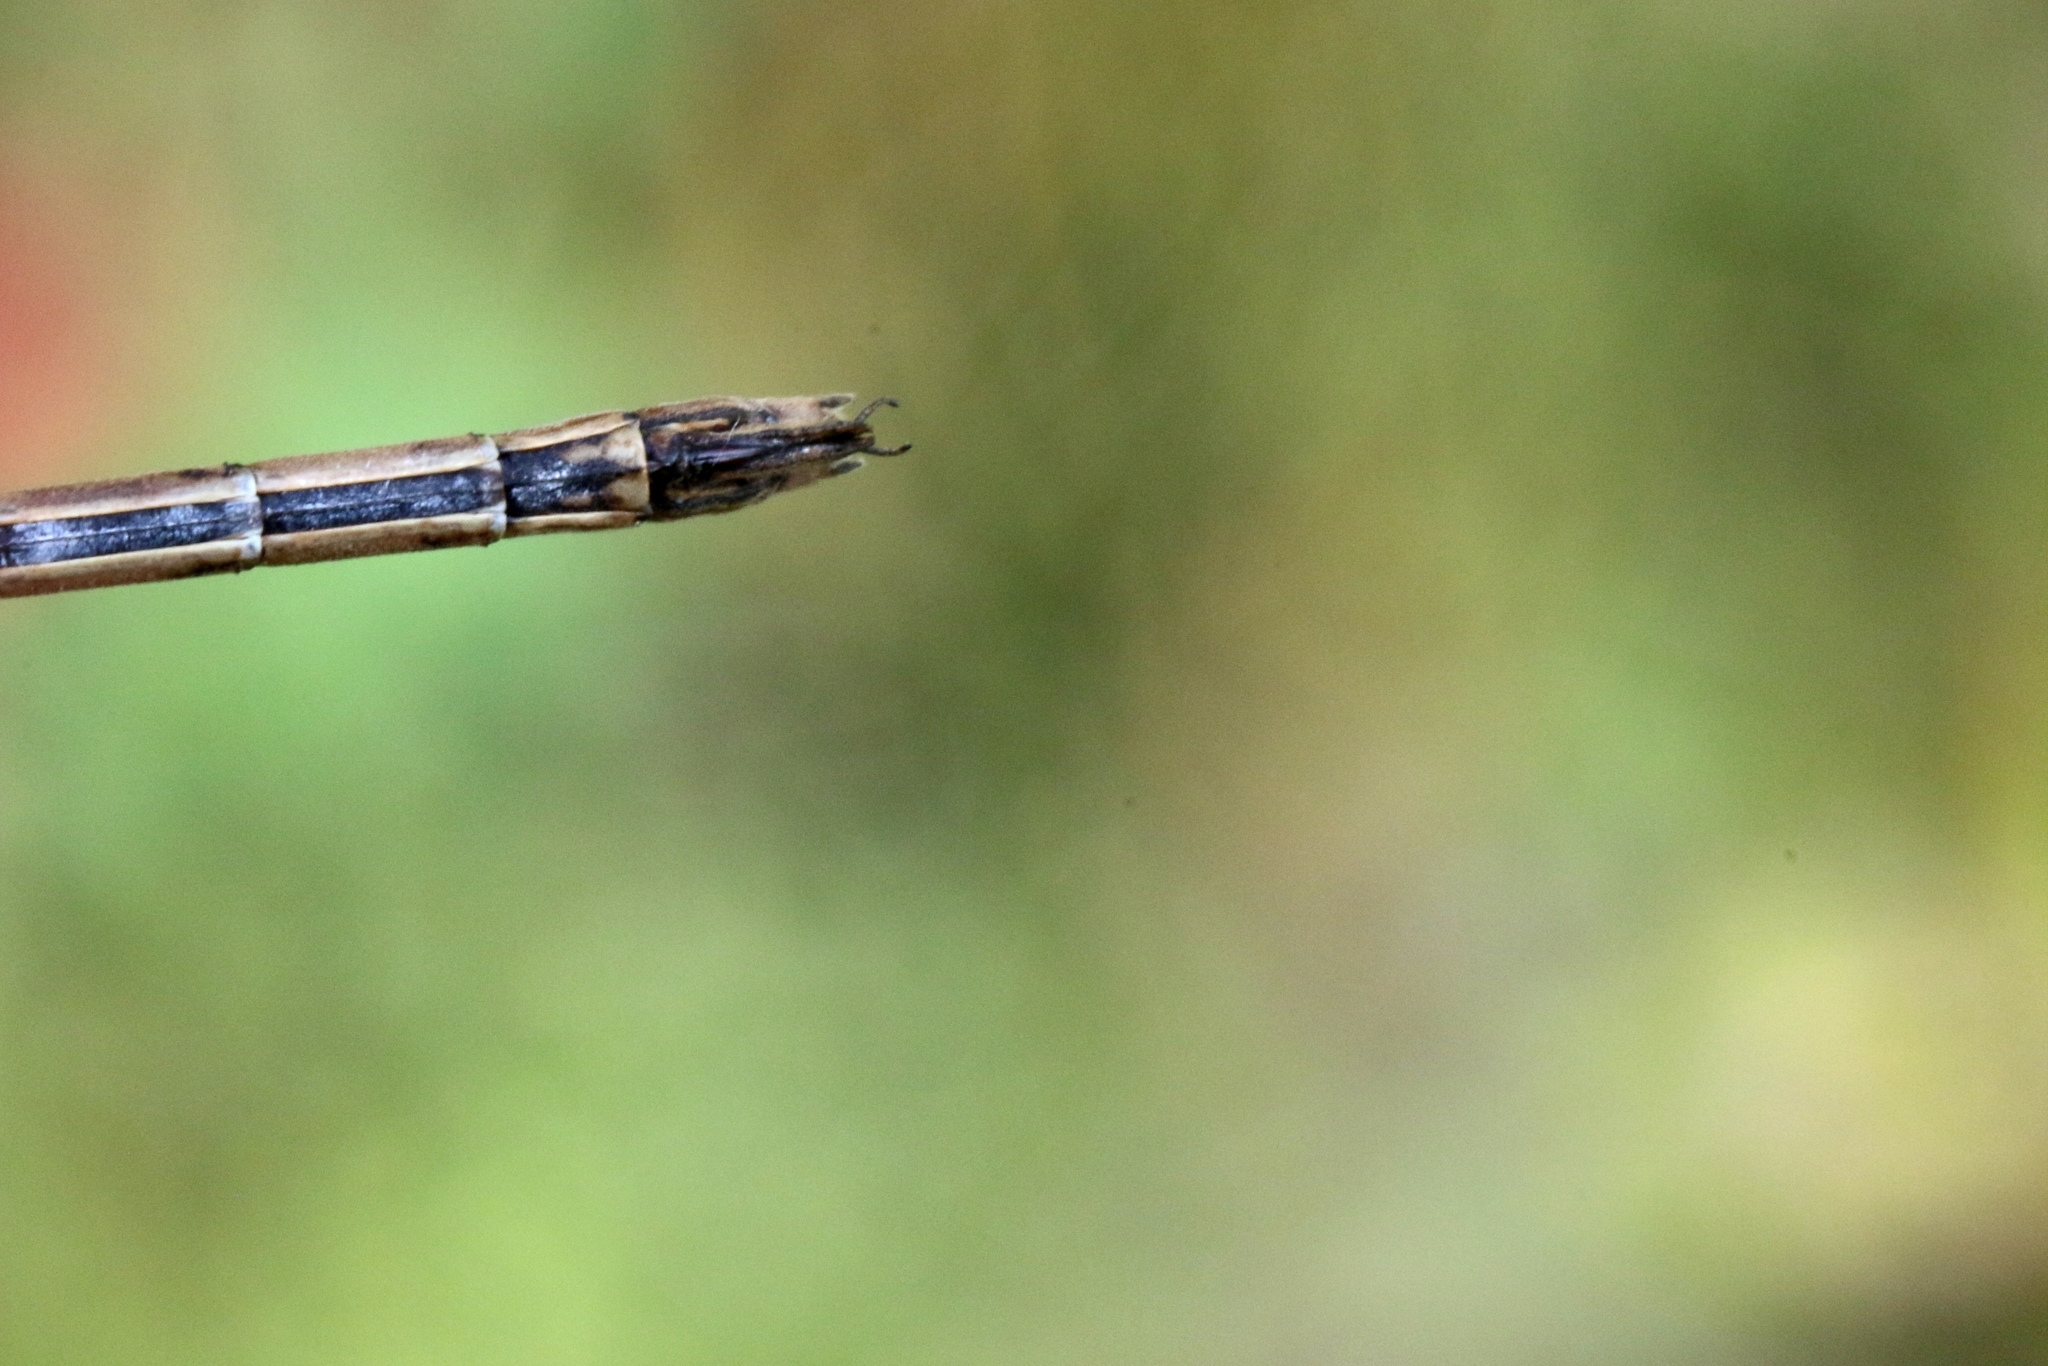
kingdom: Animalia
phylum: Arthropoda
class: Insecta
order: Odonata
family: Lestidae
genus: Lestes
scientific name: Lestes dryas
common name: Scarce emerald damselfly
